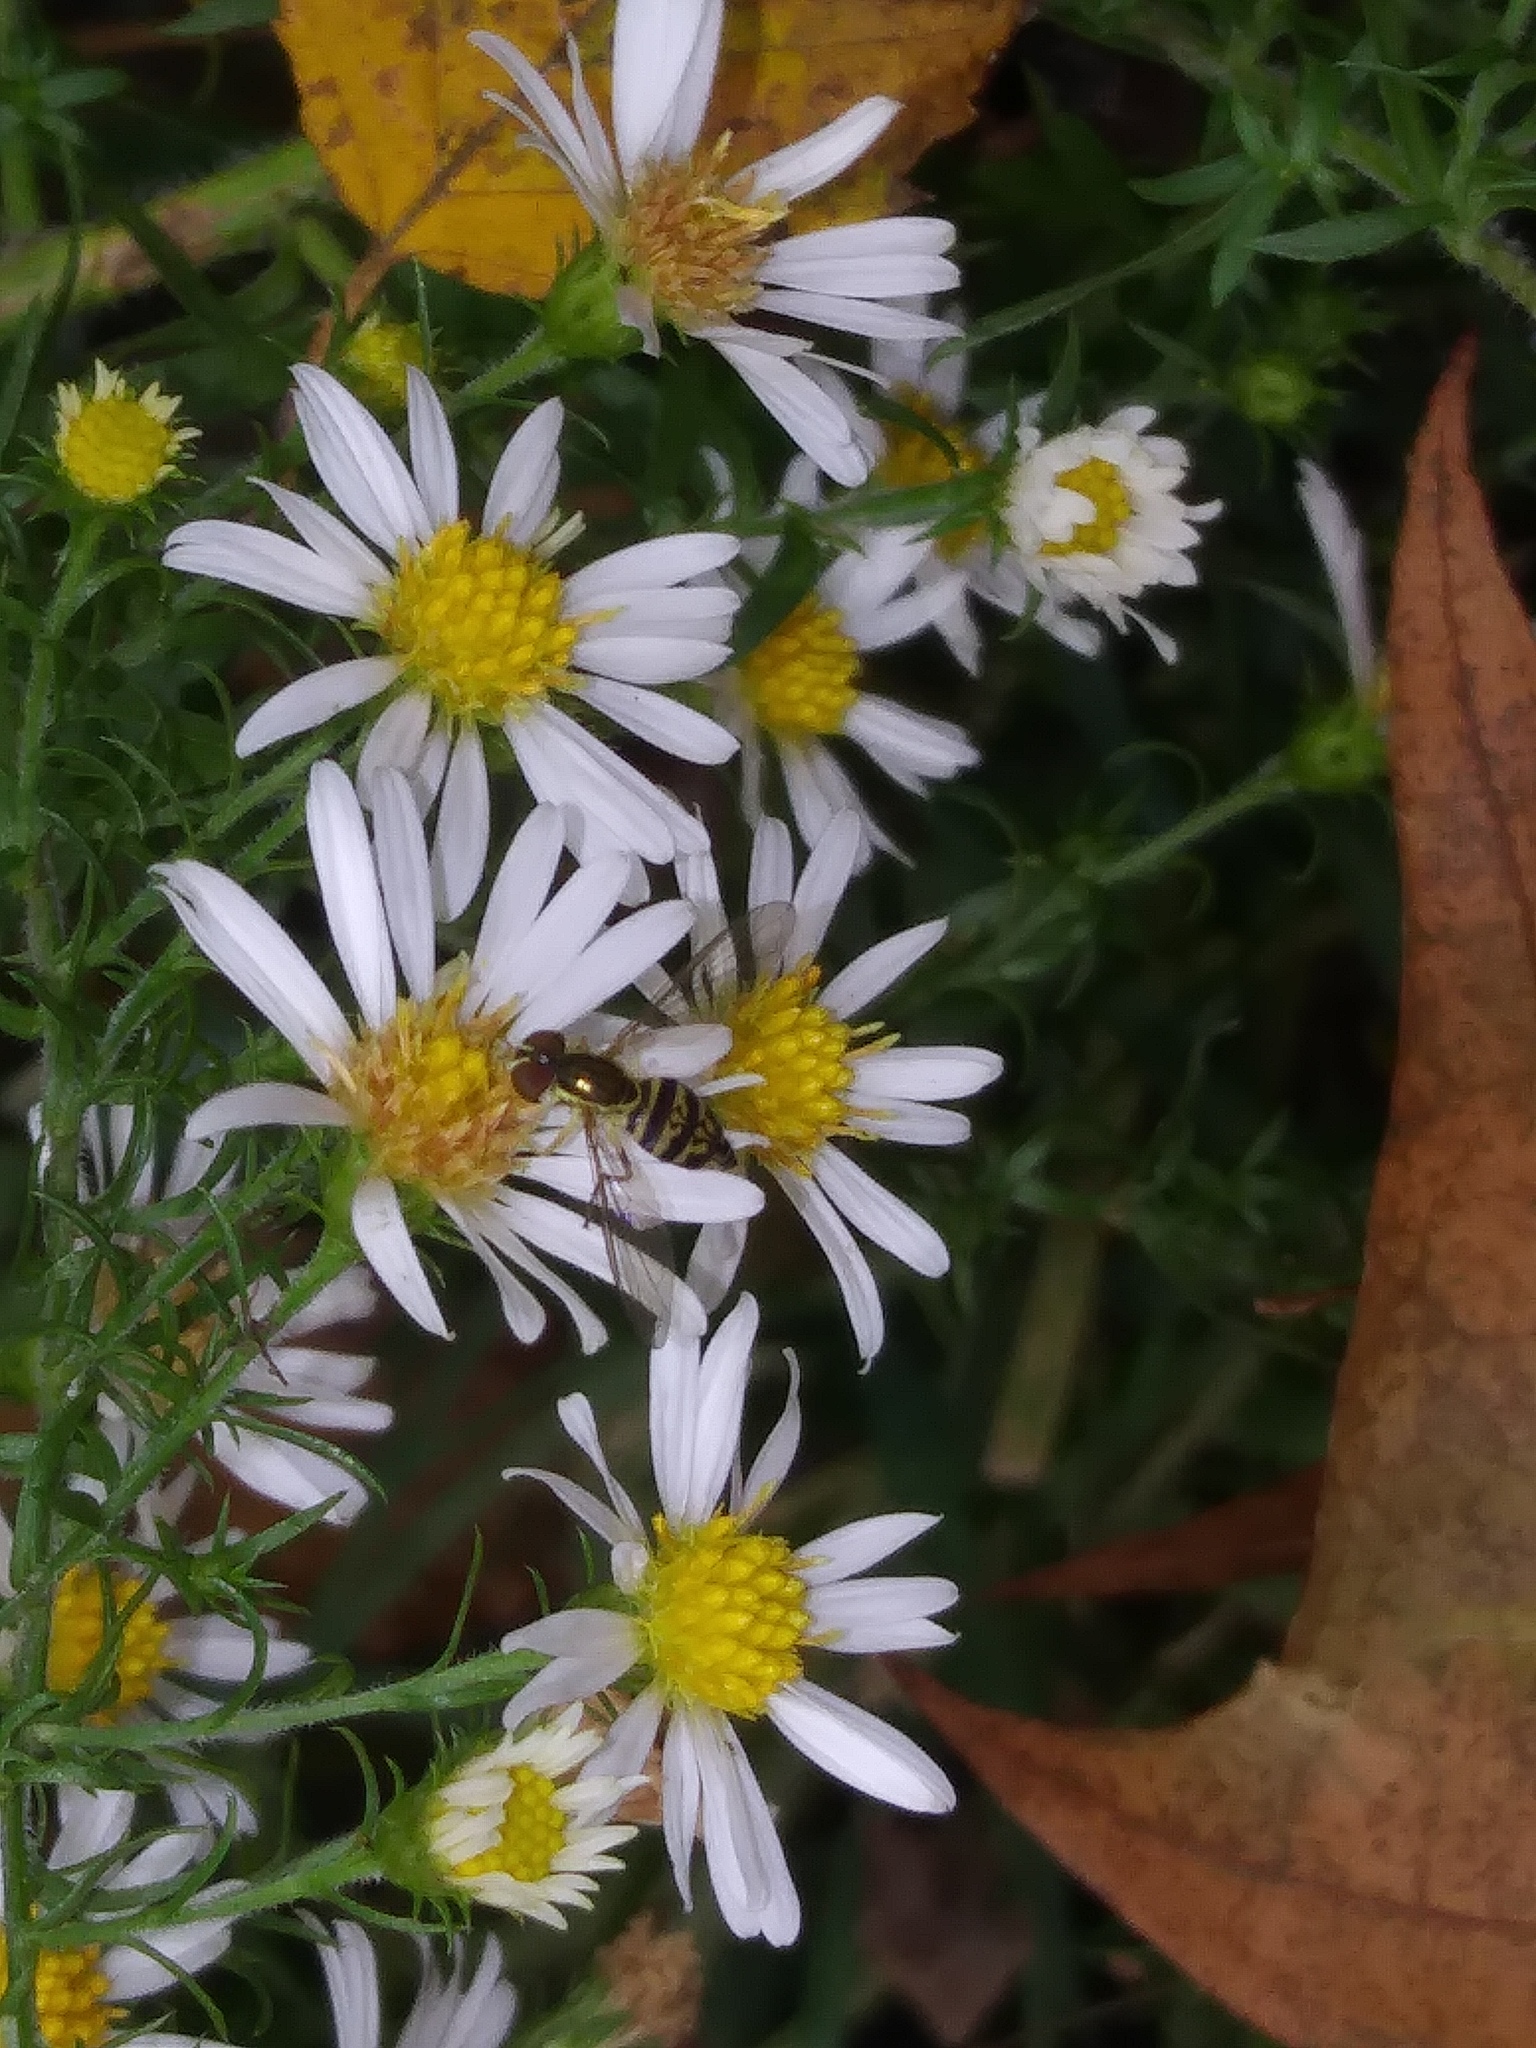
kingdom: Animalia
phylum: Arthropoda
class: Insecta
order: Diptera
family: Syrphidae
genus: Toxomerus
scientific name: Toxomerus geminatus
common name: Eastern calligrapher
